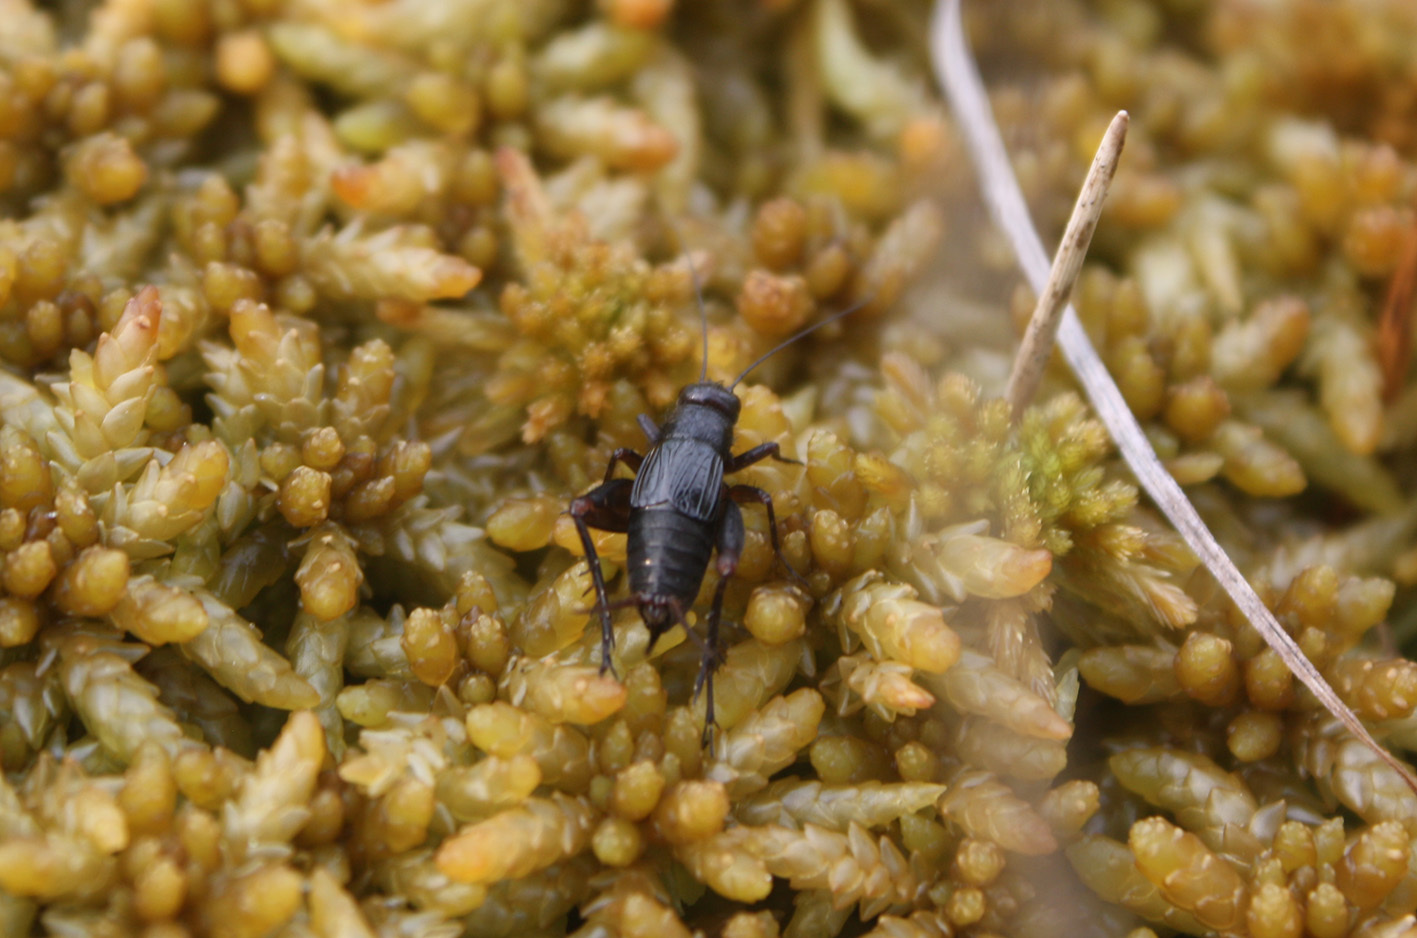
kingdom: Animalia
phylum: Arthropoda
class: Insecta
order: Orthoptera
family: Trigonidiidae
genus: Neonemobius
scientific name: Neonemobius palustris
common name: Marsh ground cricket
